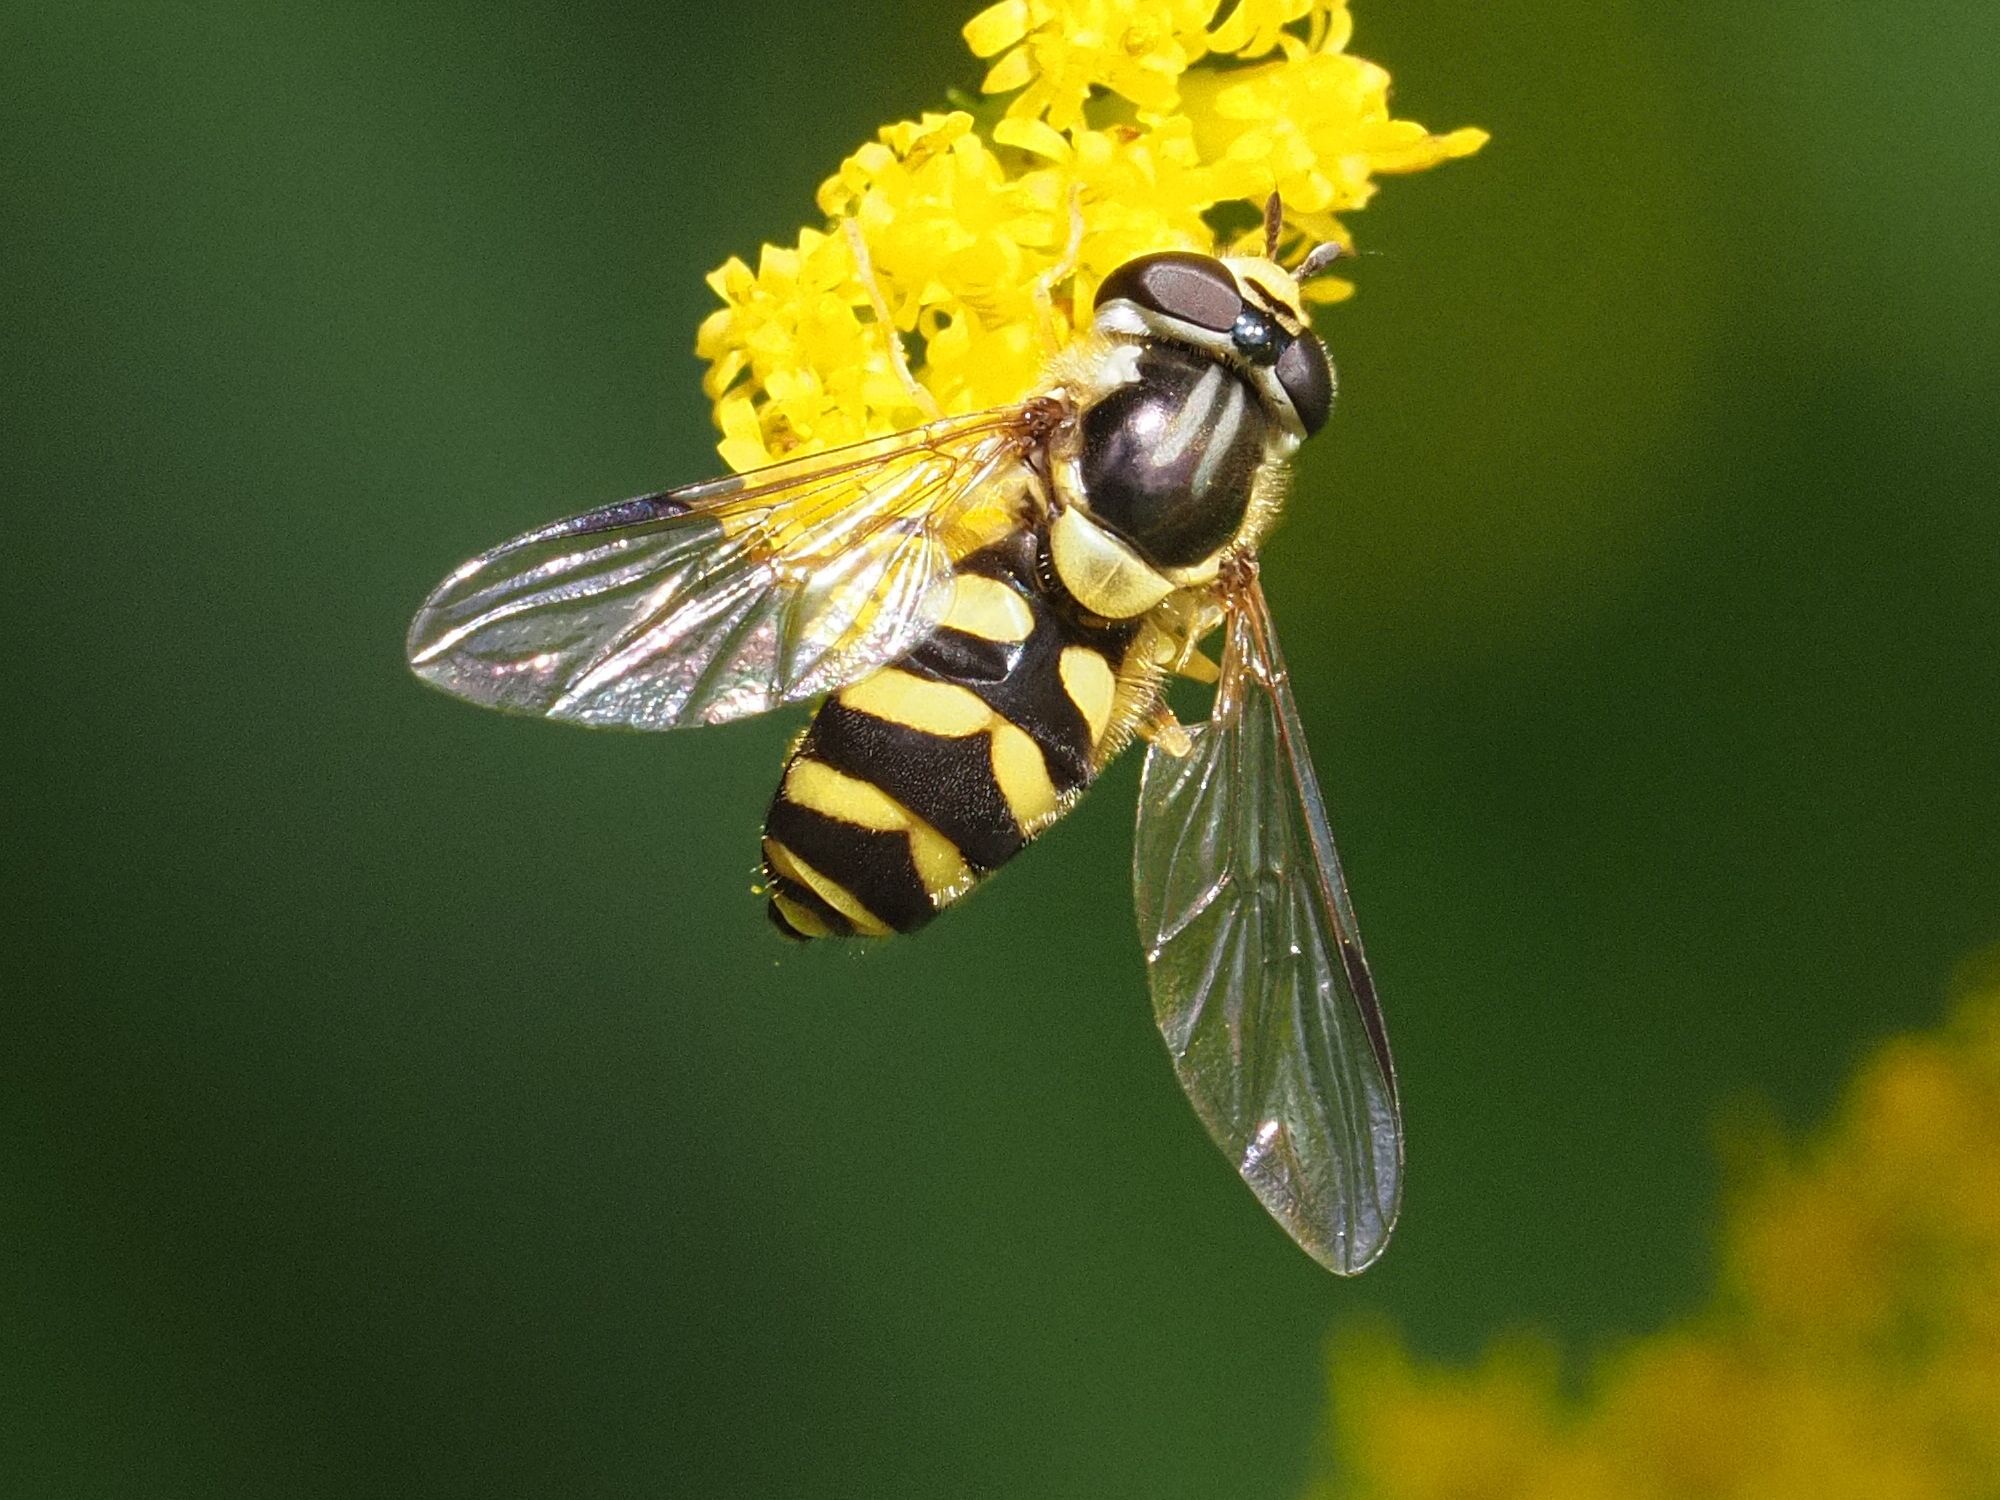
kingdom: Animalia
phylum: Arthropoda
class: Insecta
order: Diptera
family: Syrphidae
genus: Dasysyrphus
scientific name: Dasysyrphus albostriatus
